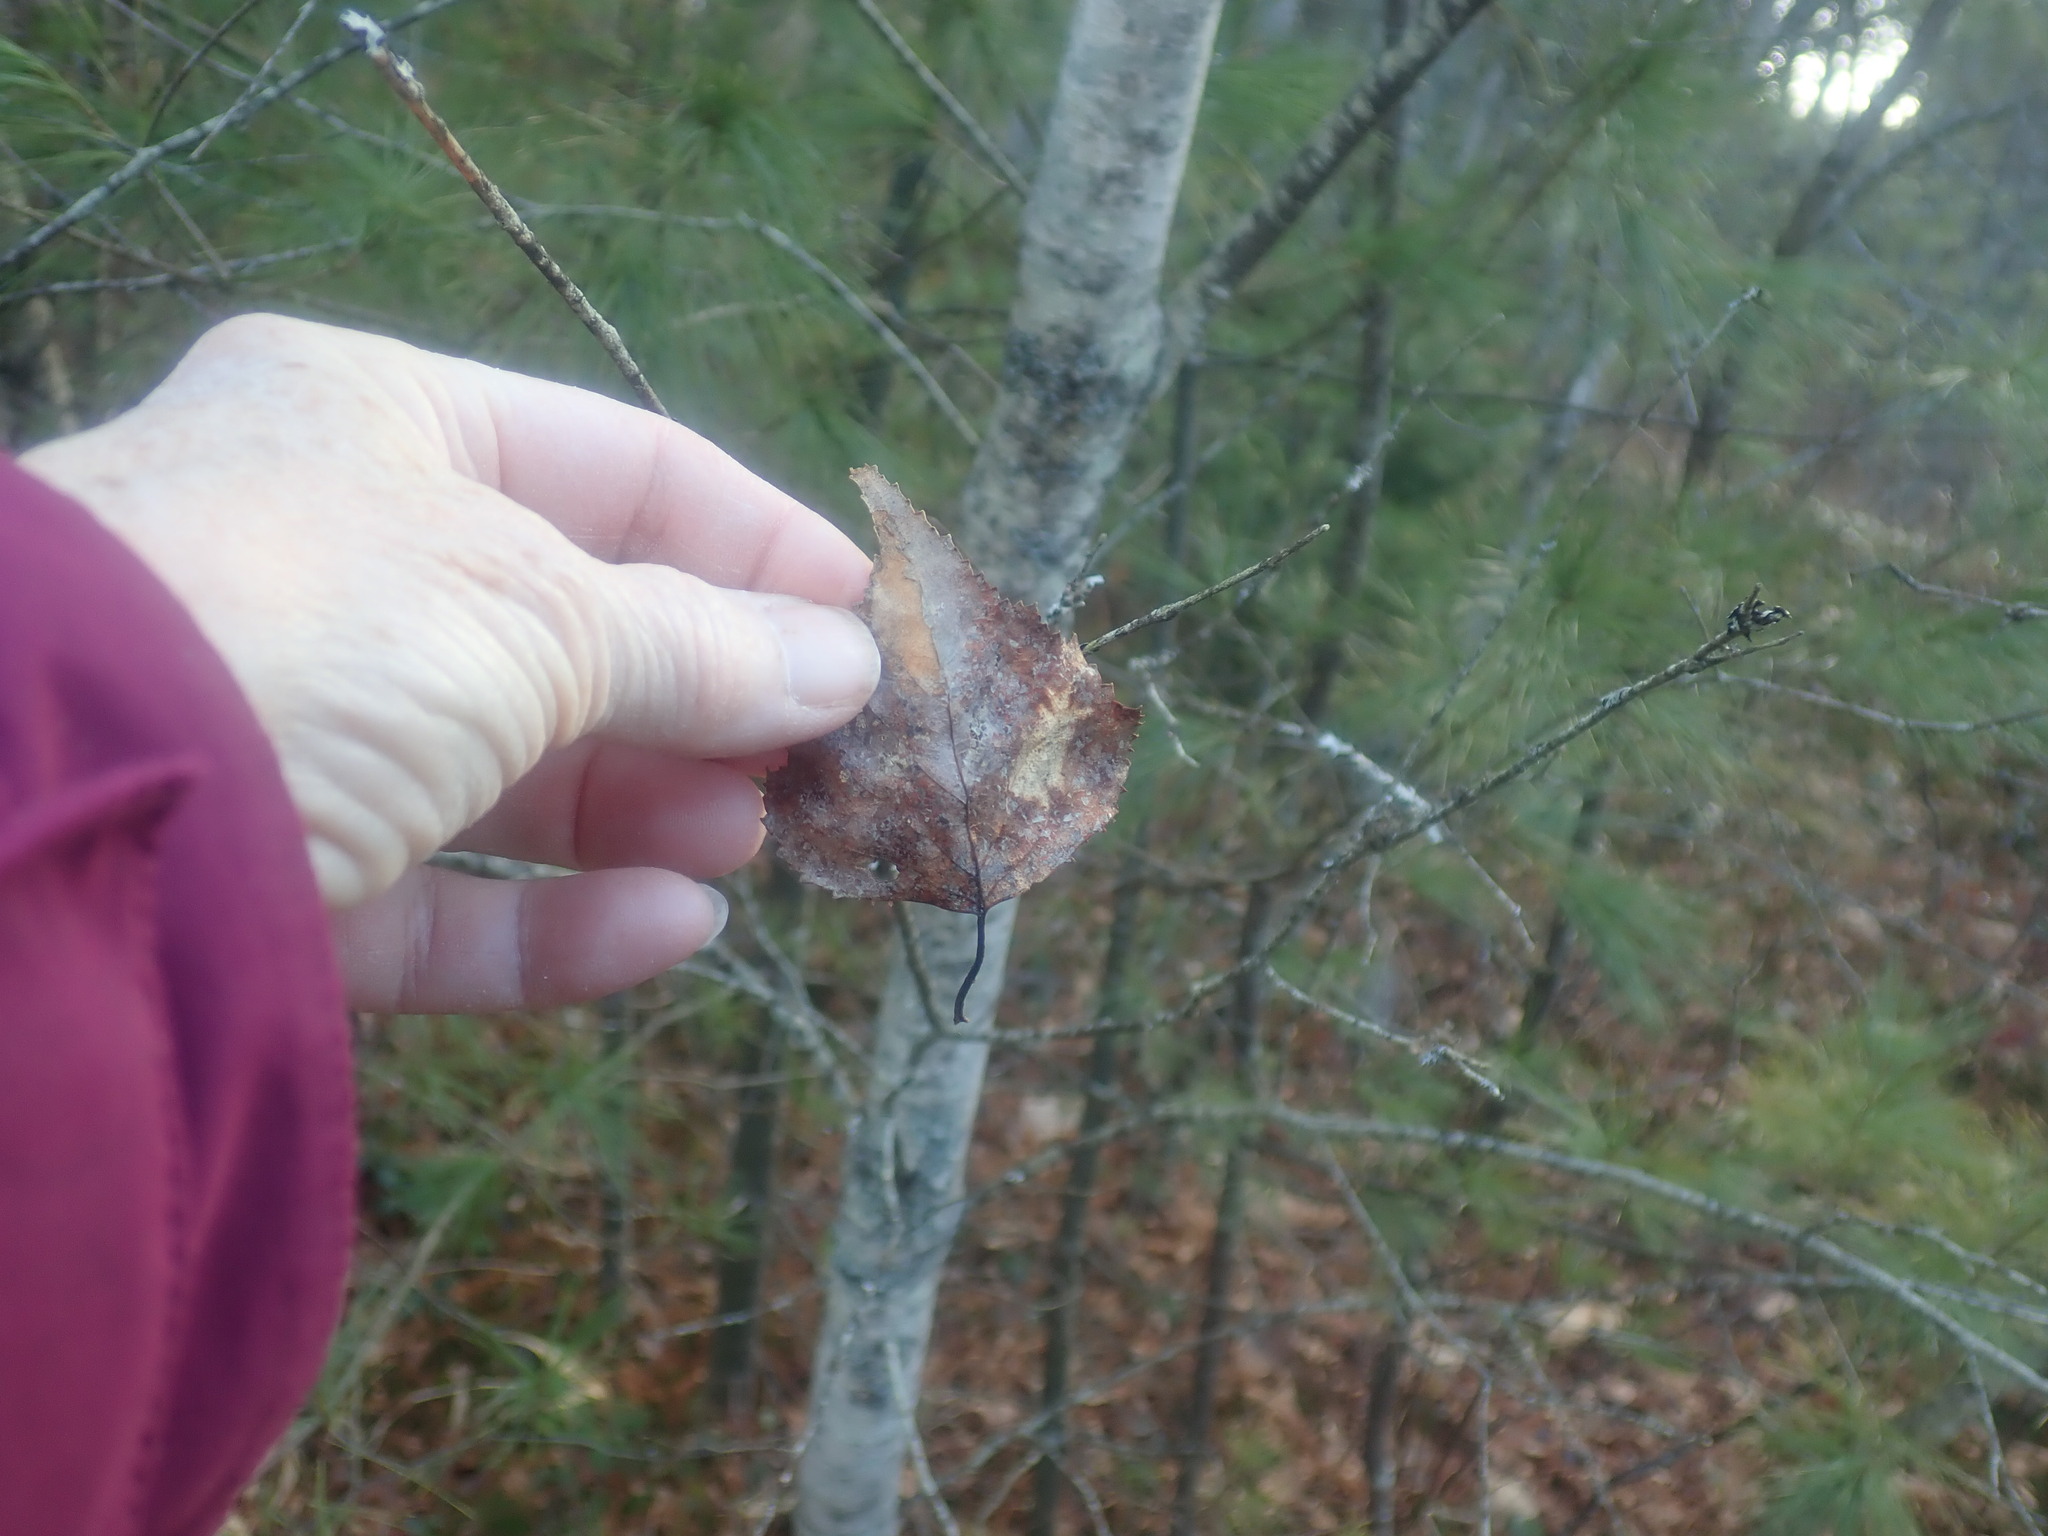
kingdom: Plantae
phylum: Tracheophyta
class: Magnoliopsida
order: Fagales
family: Betulaceae
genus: Betula
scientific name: Betula populifolia
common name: Fire birch
